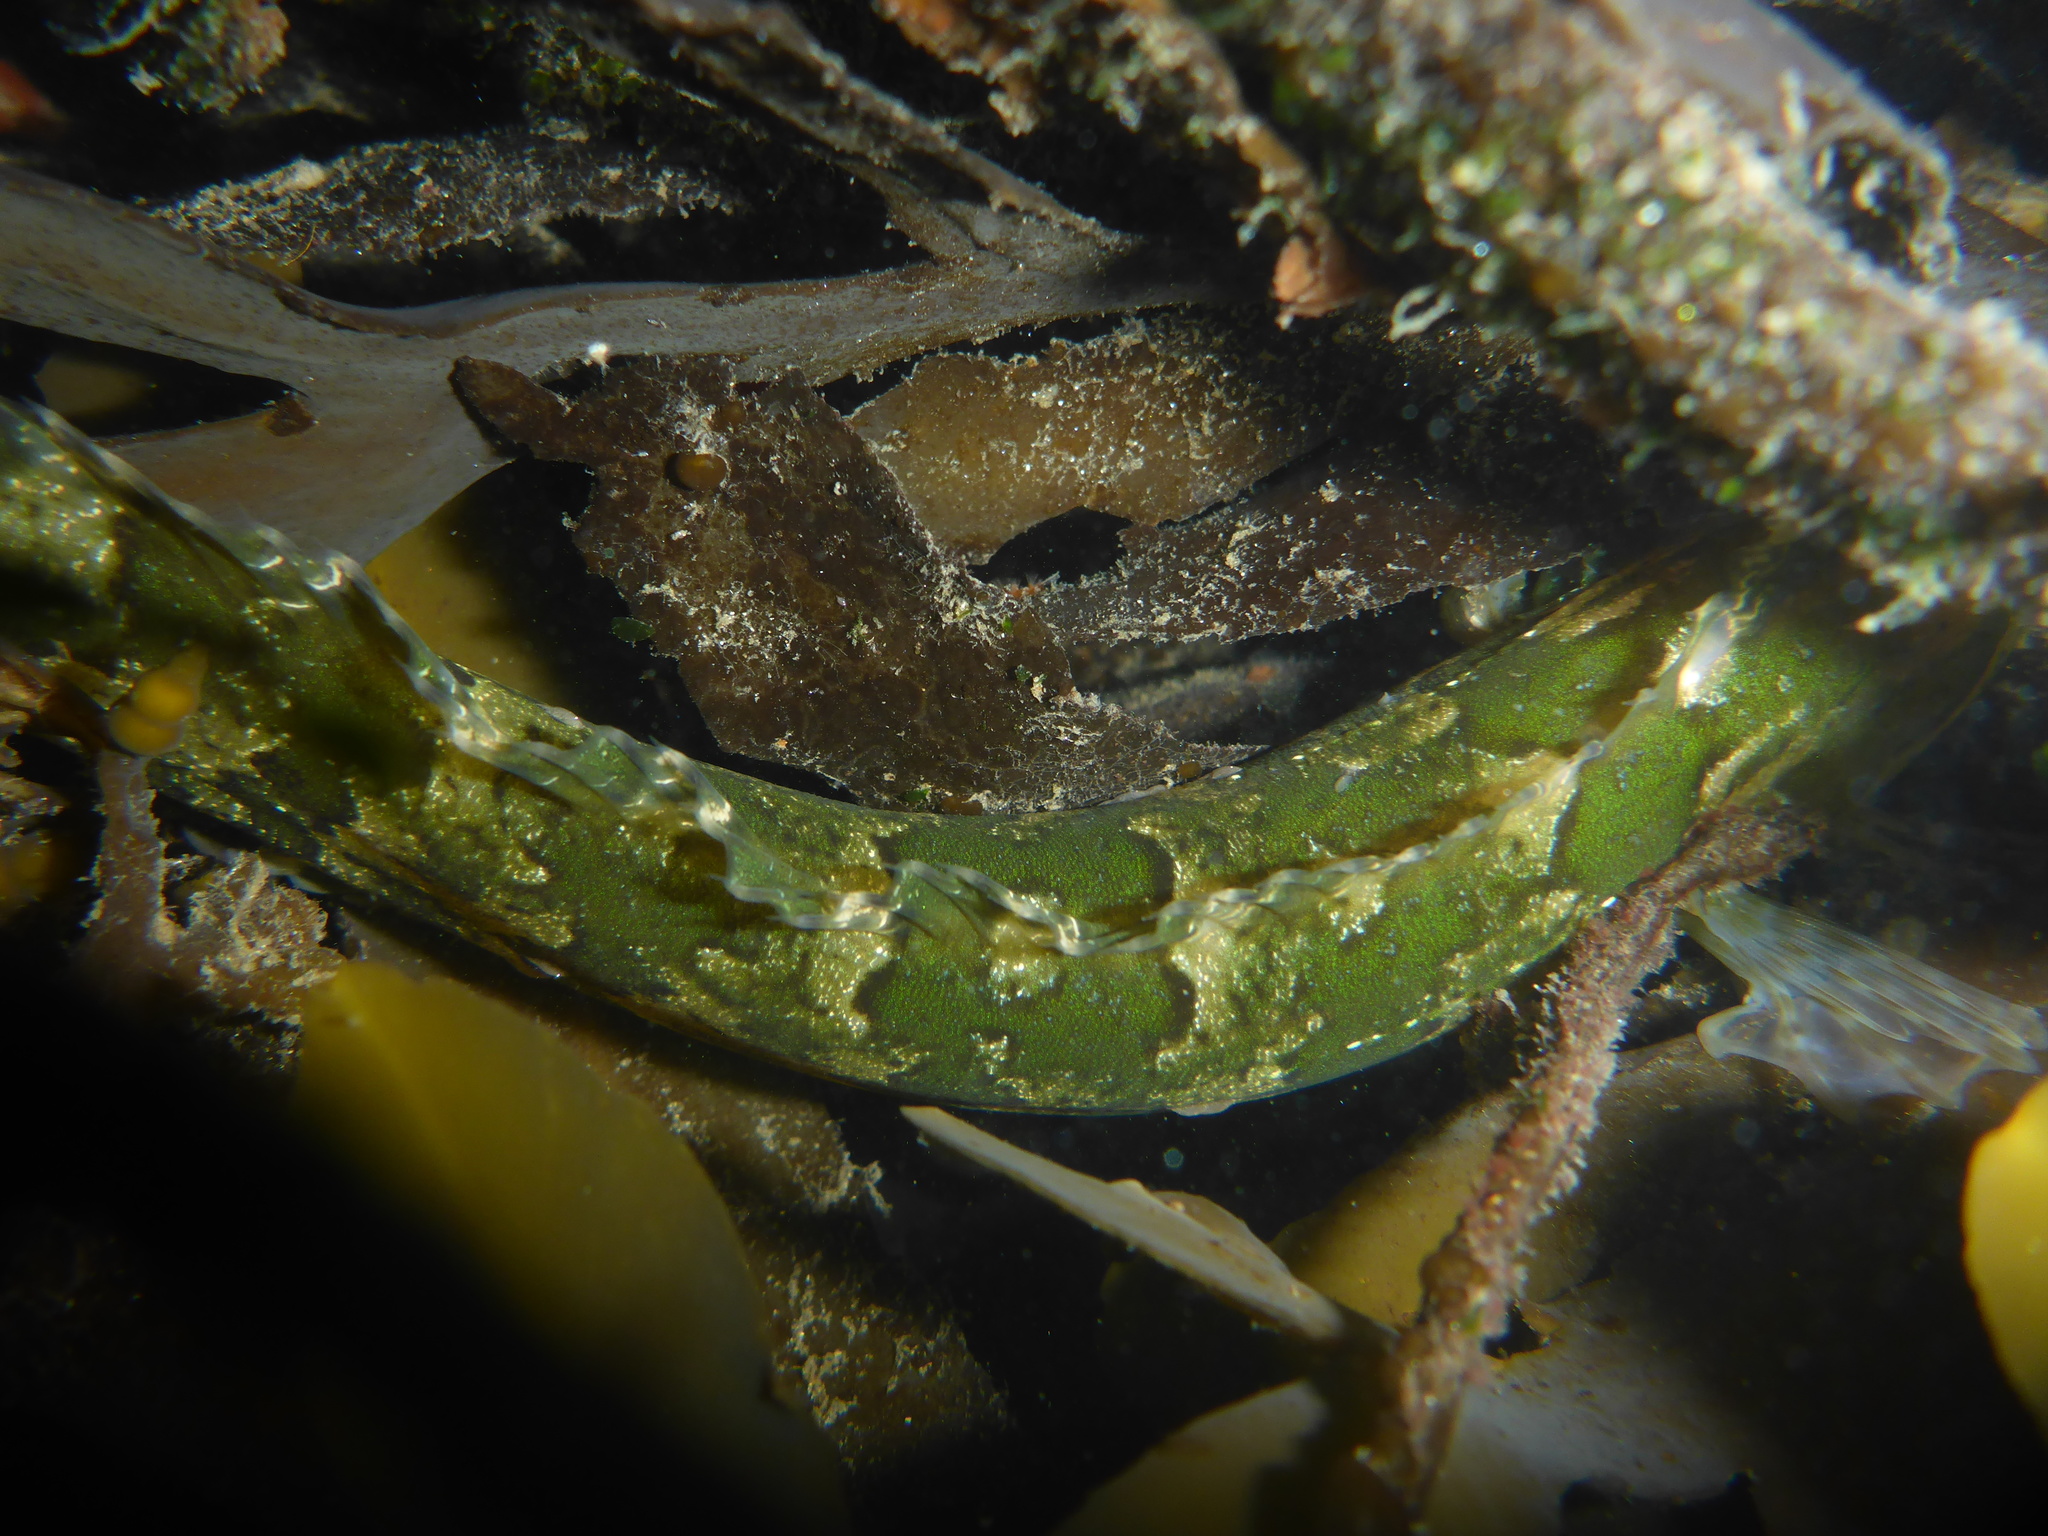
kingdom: Animalia
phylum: Chordata
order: Perciformes
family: Clinidae
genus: Gibbonsia
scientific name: Gibbonsia metzi
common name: Striped kelpfish
